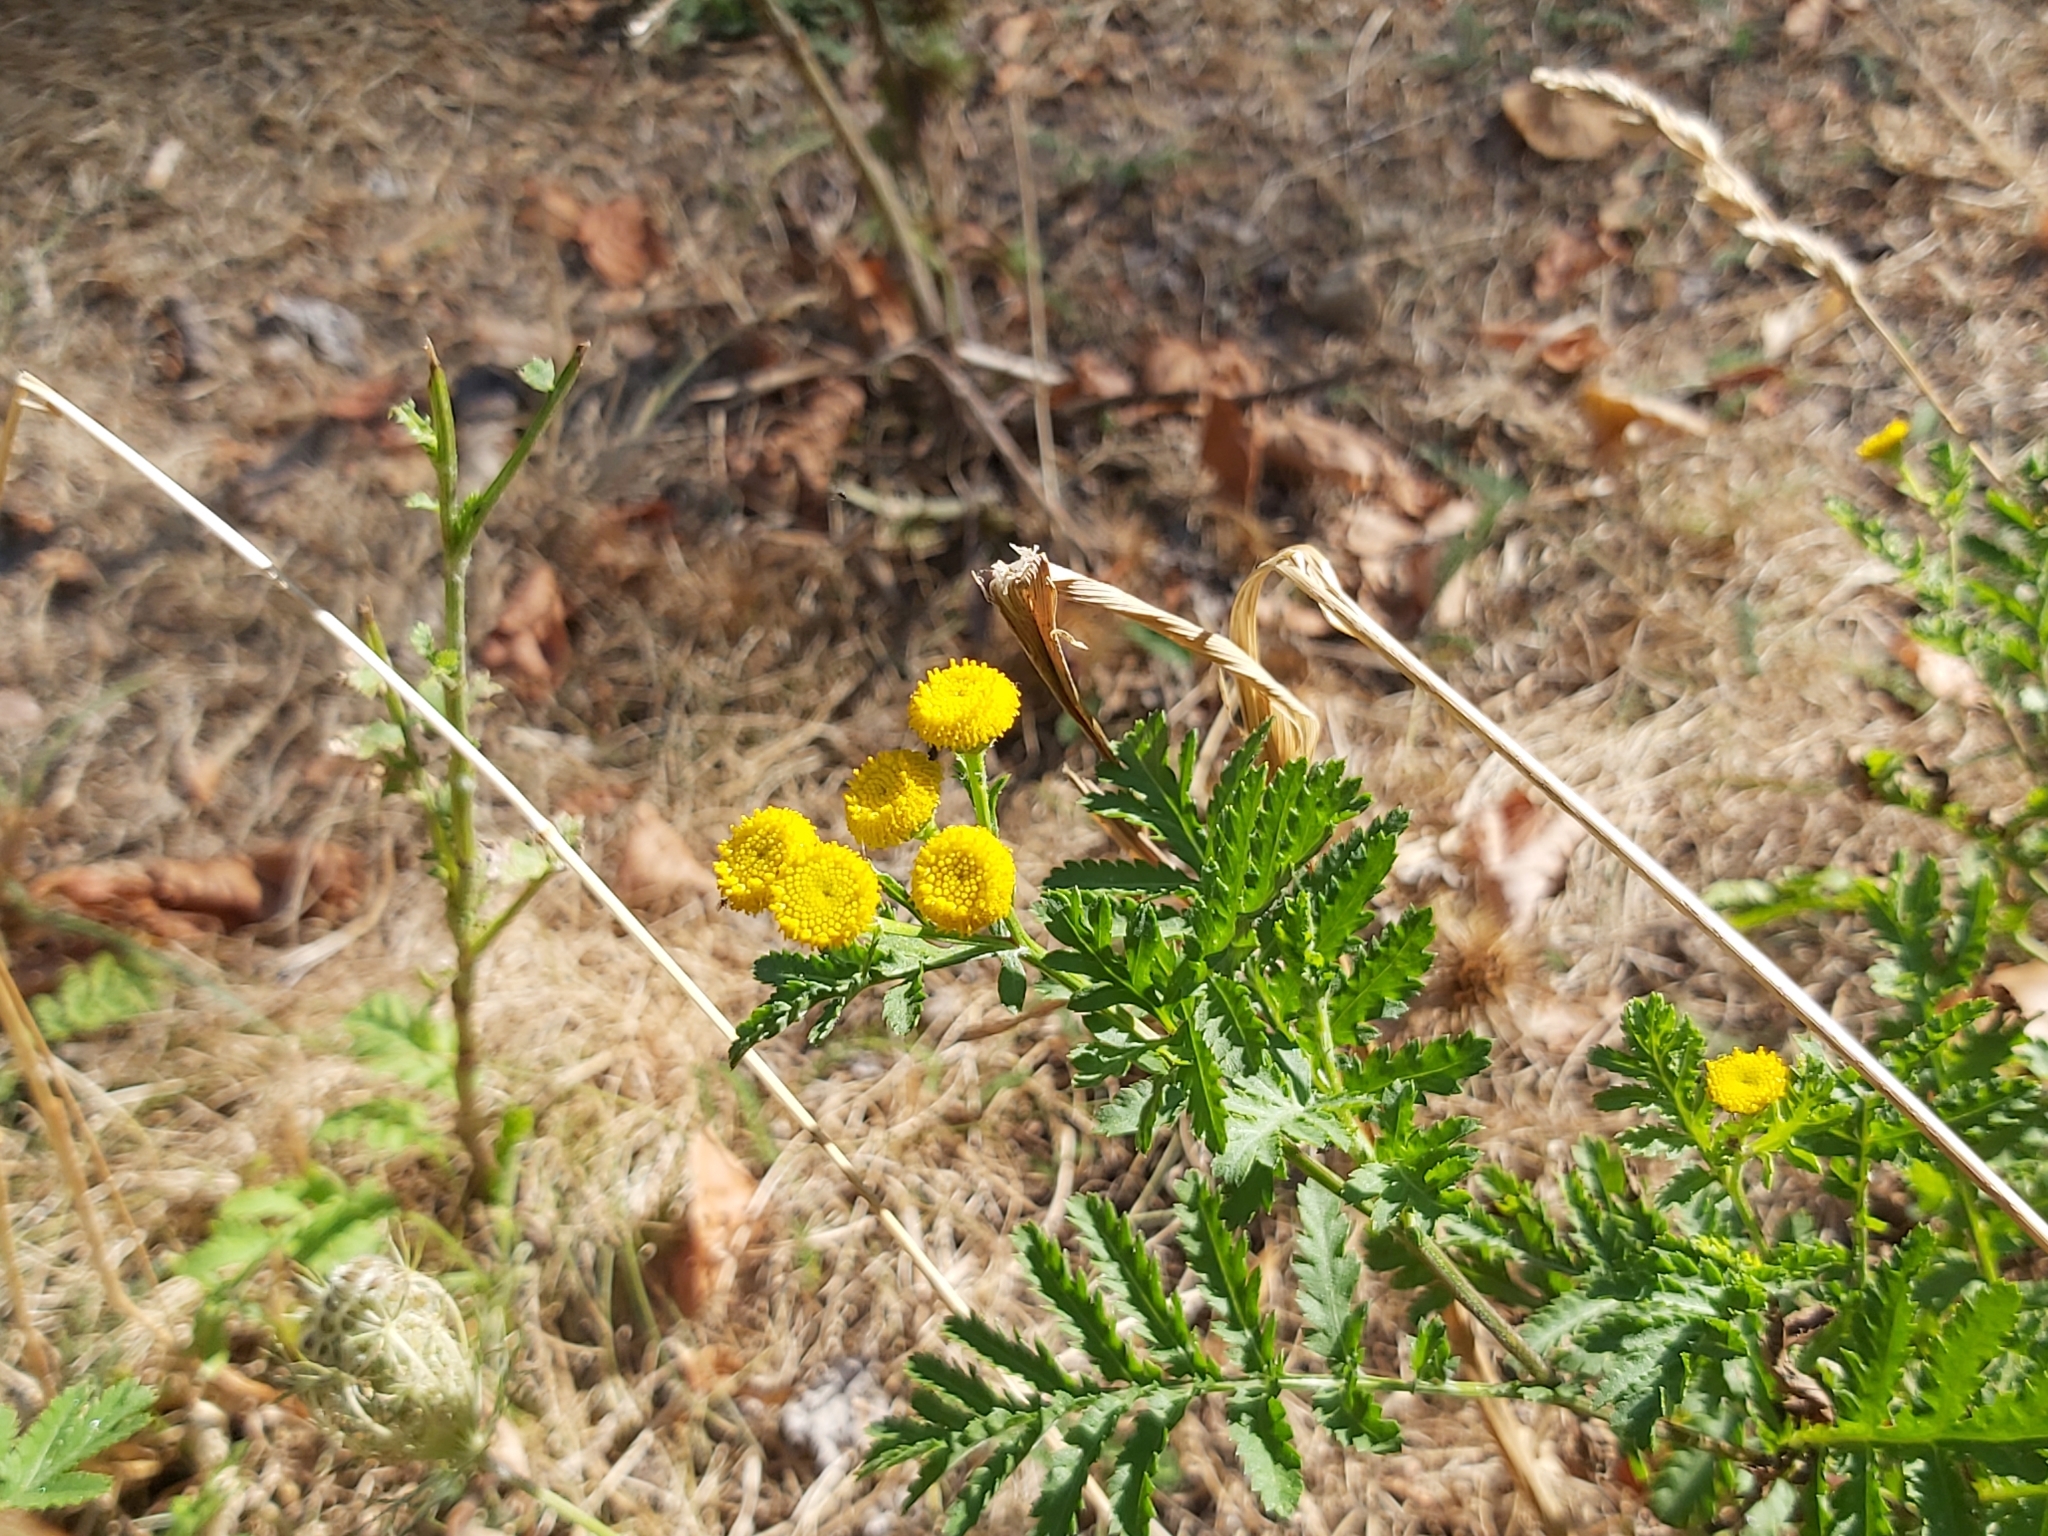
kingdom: Plantae
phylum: Tracheophyta
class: Magnoliopsida
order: Asterales
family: Asteraceae
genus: Tanacetum
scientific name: Tanacetum vulgare
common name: Common tansy
